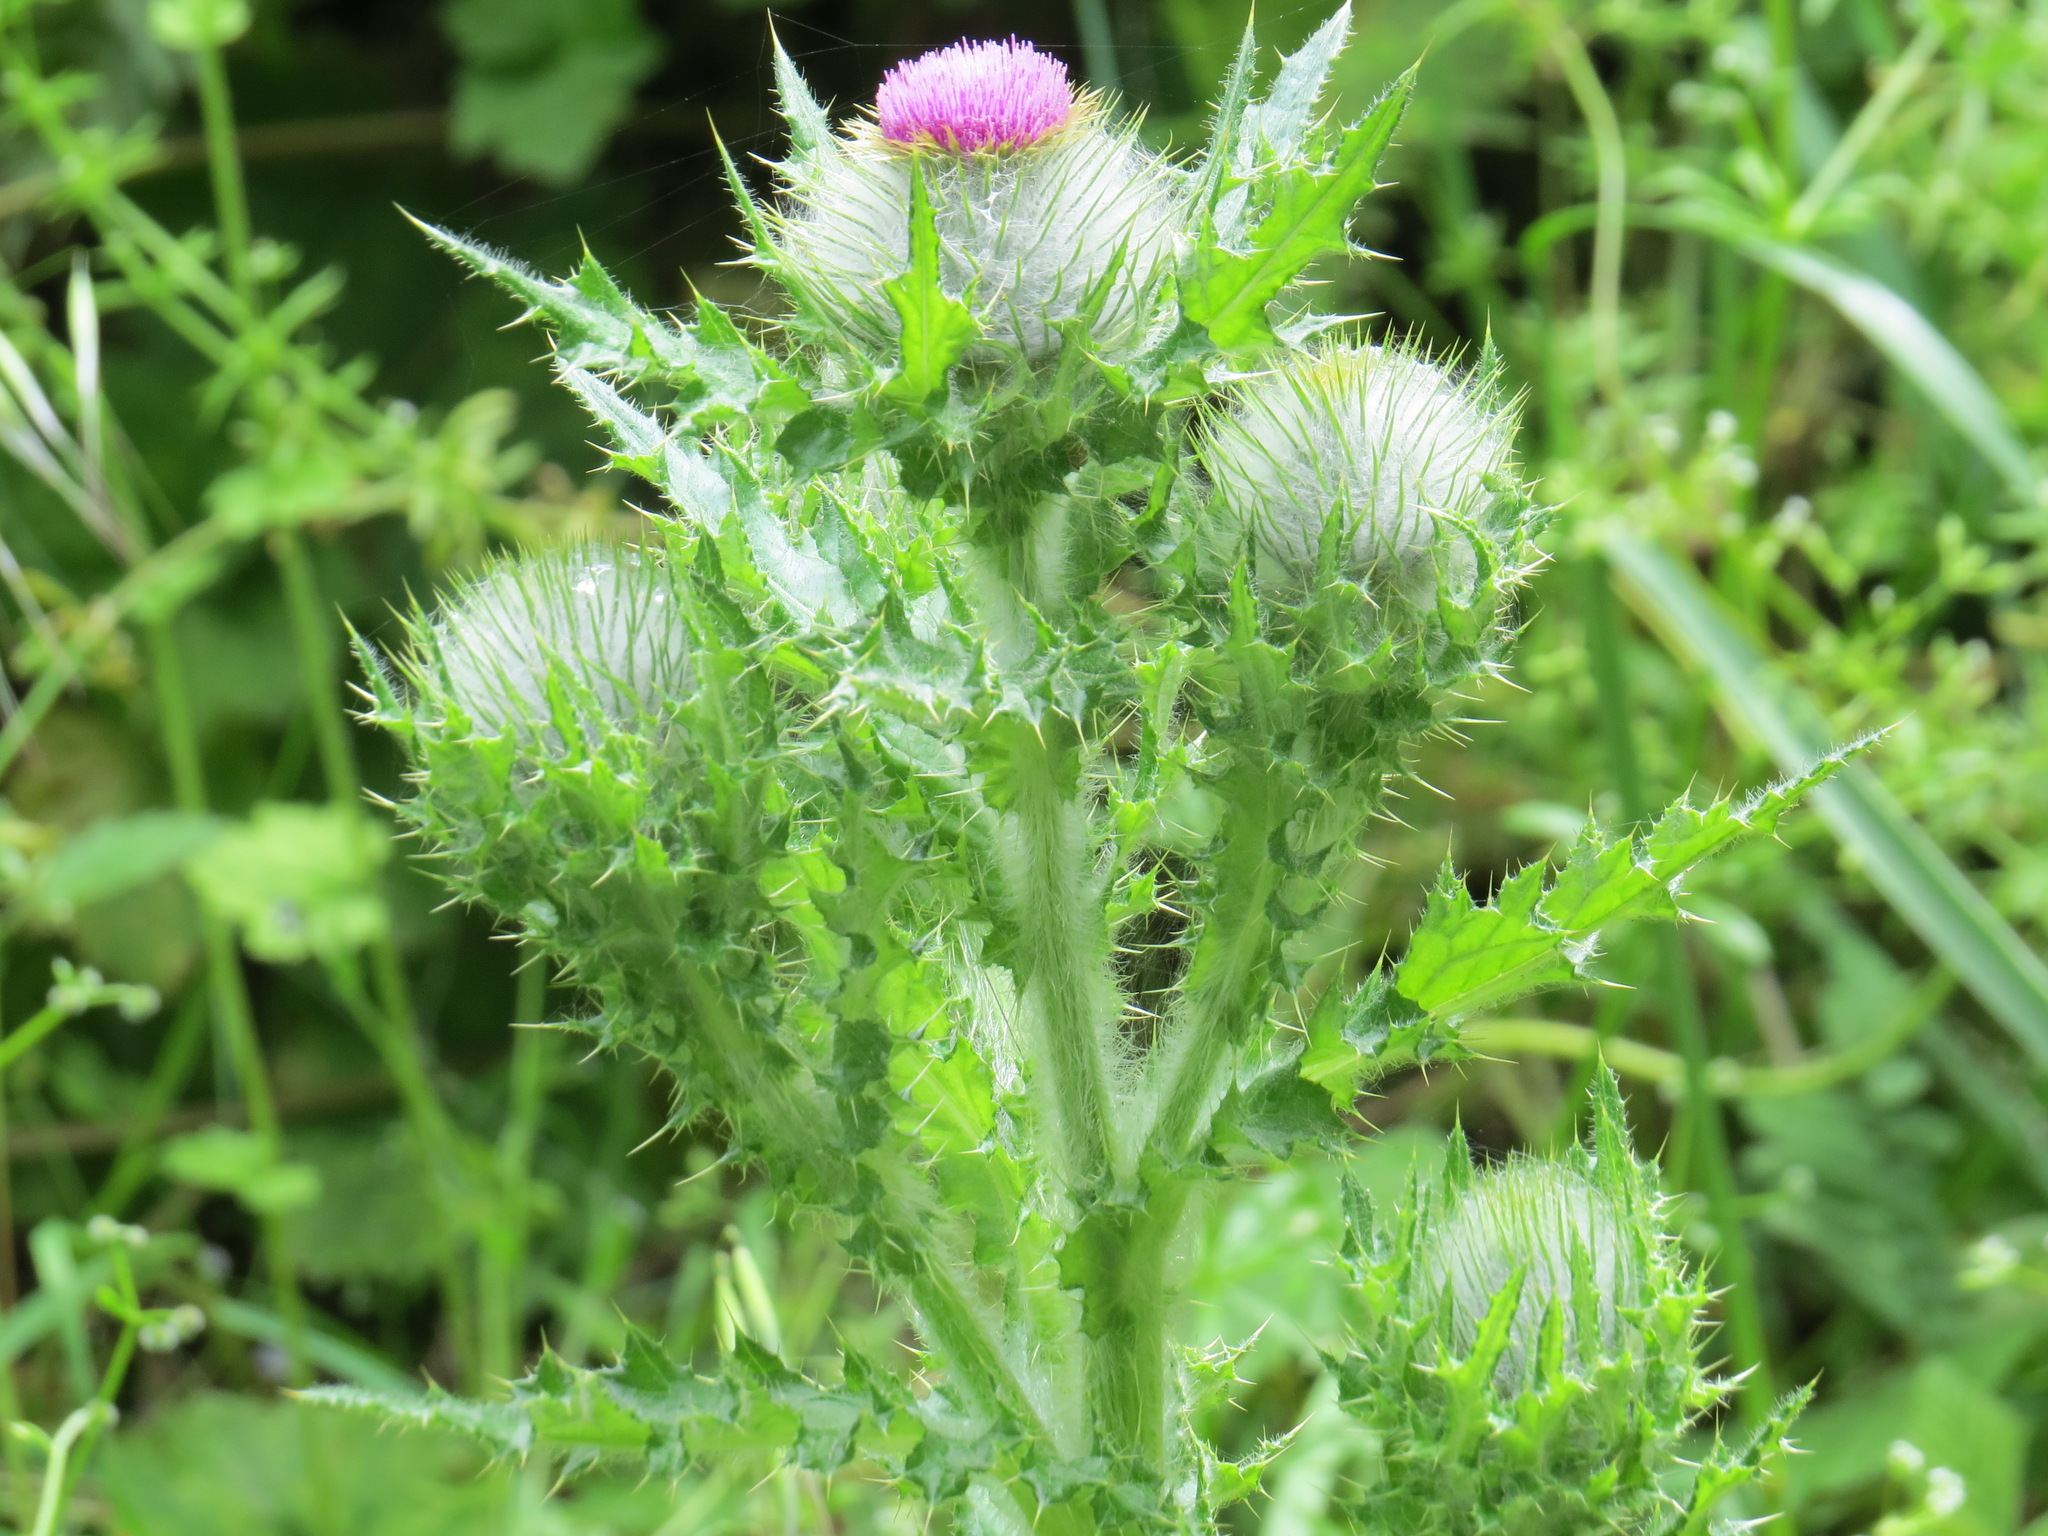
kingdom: Plantae
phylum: Tracheophyta
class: Magnoliopsida
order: Asterales
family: Asteraceae
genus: Cirsium
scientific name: Cirsium brevistylum
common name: Indian thistle
